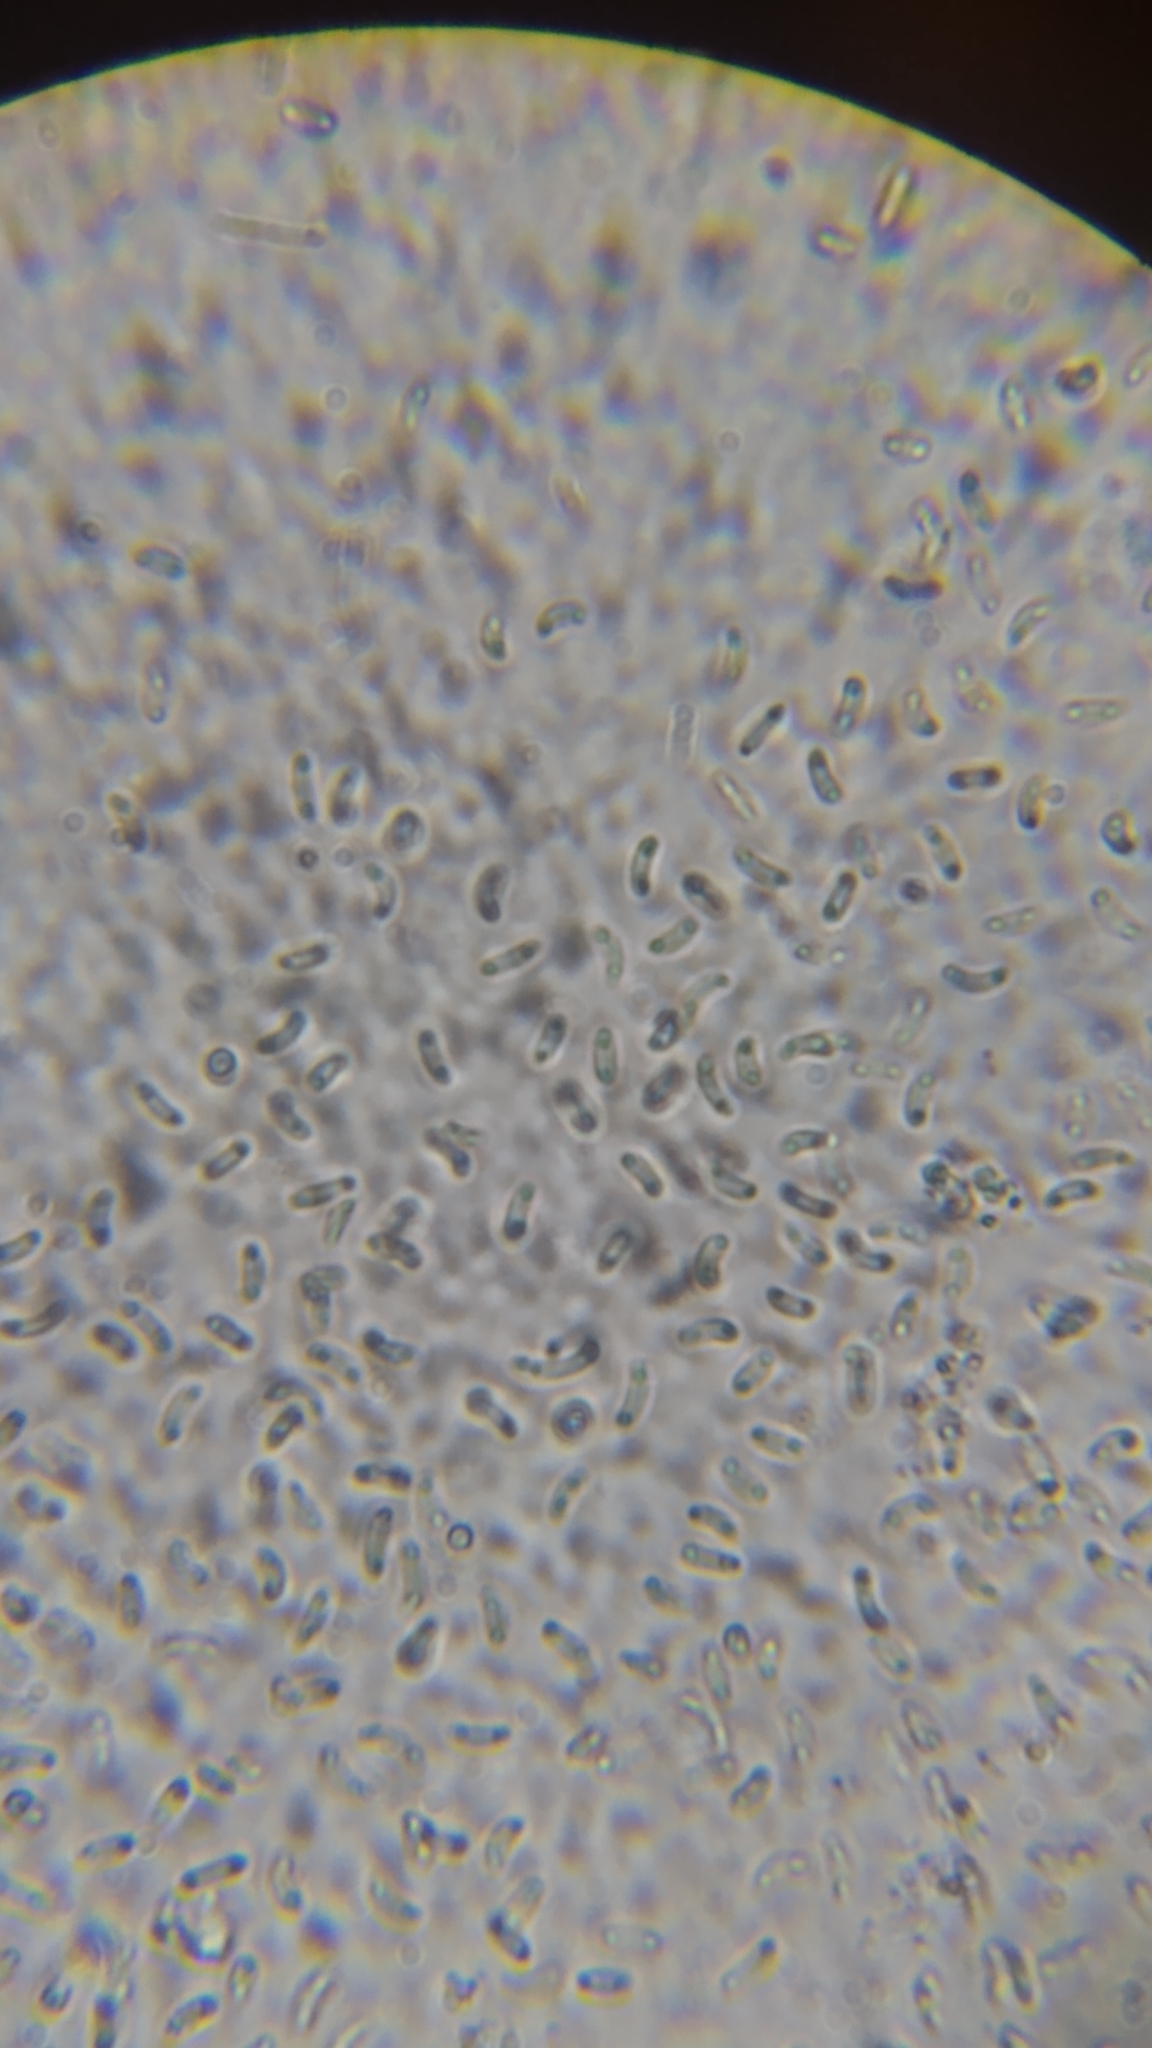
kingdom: Fungi
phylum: Ascomycota
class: Sordariomycetes
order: Xylariales
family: Diatrypaceae
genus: Peroneutypa
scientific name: Peroneutypa scoparia
